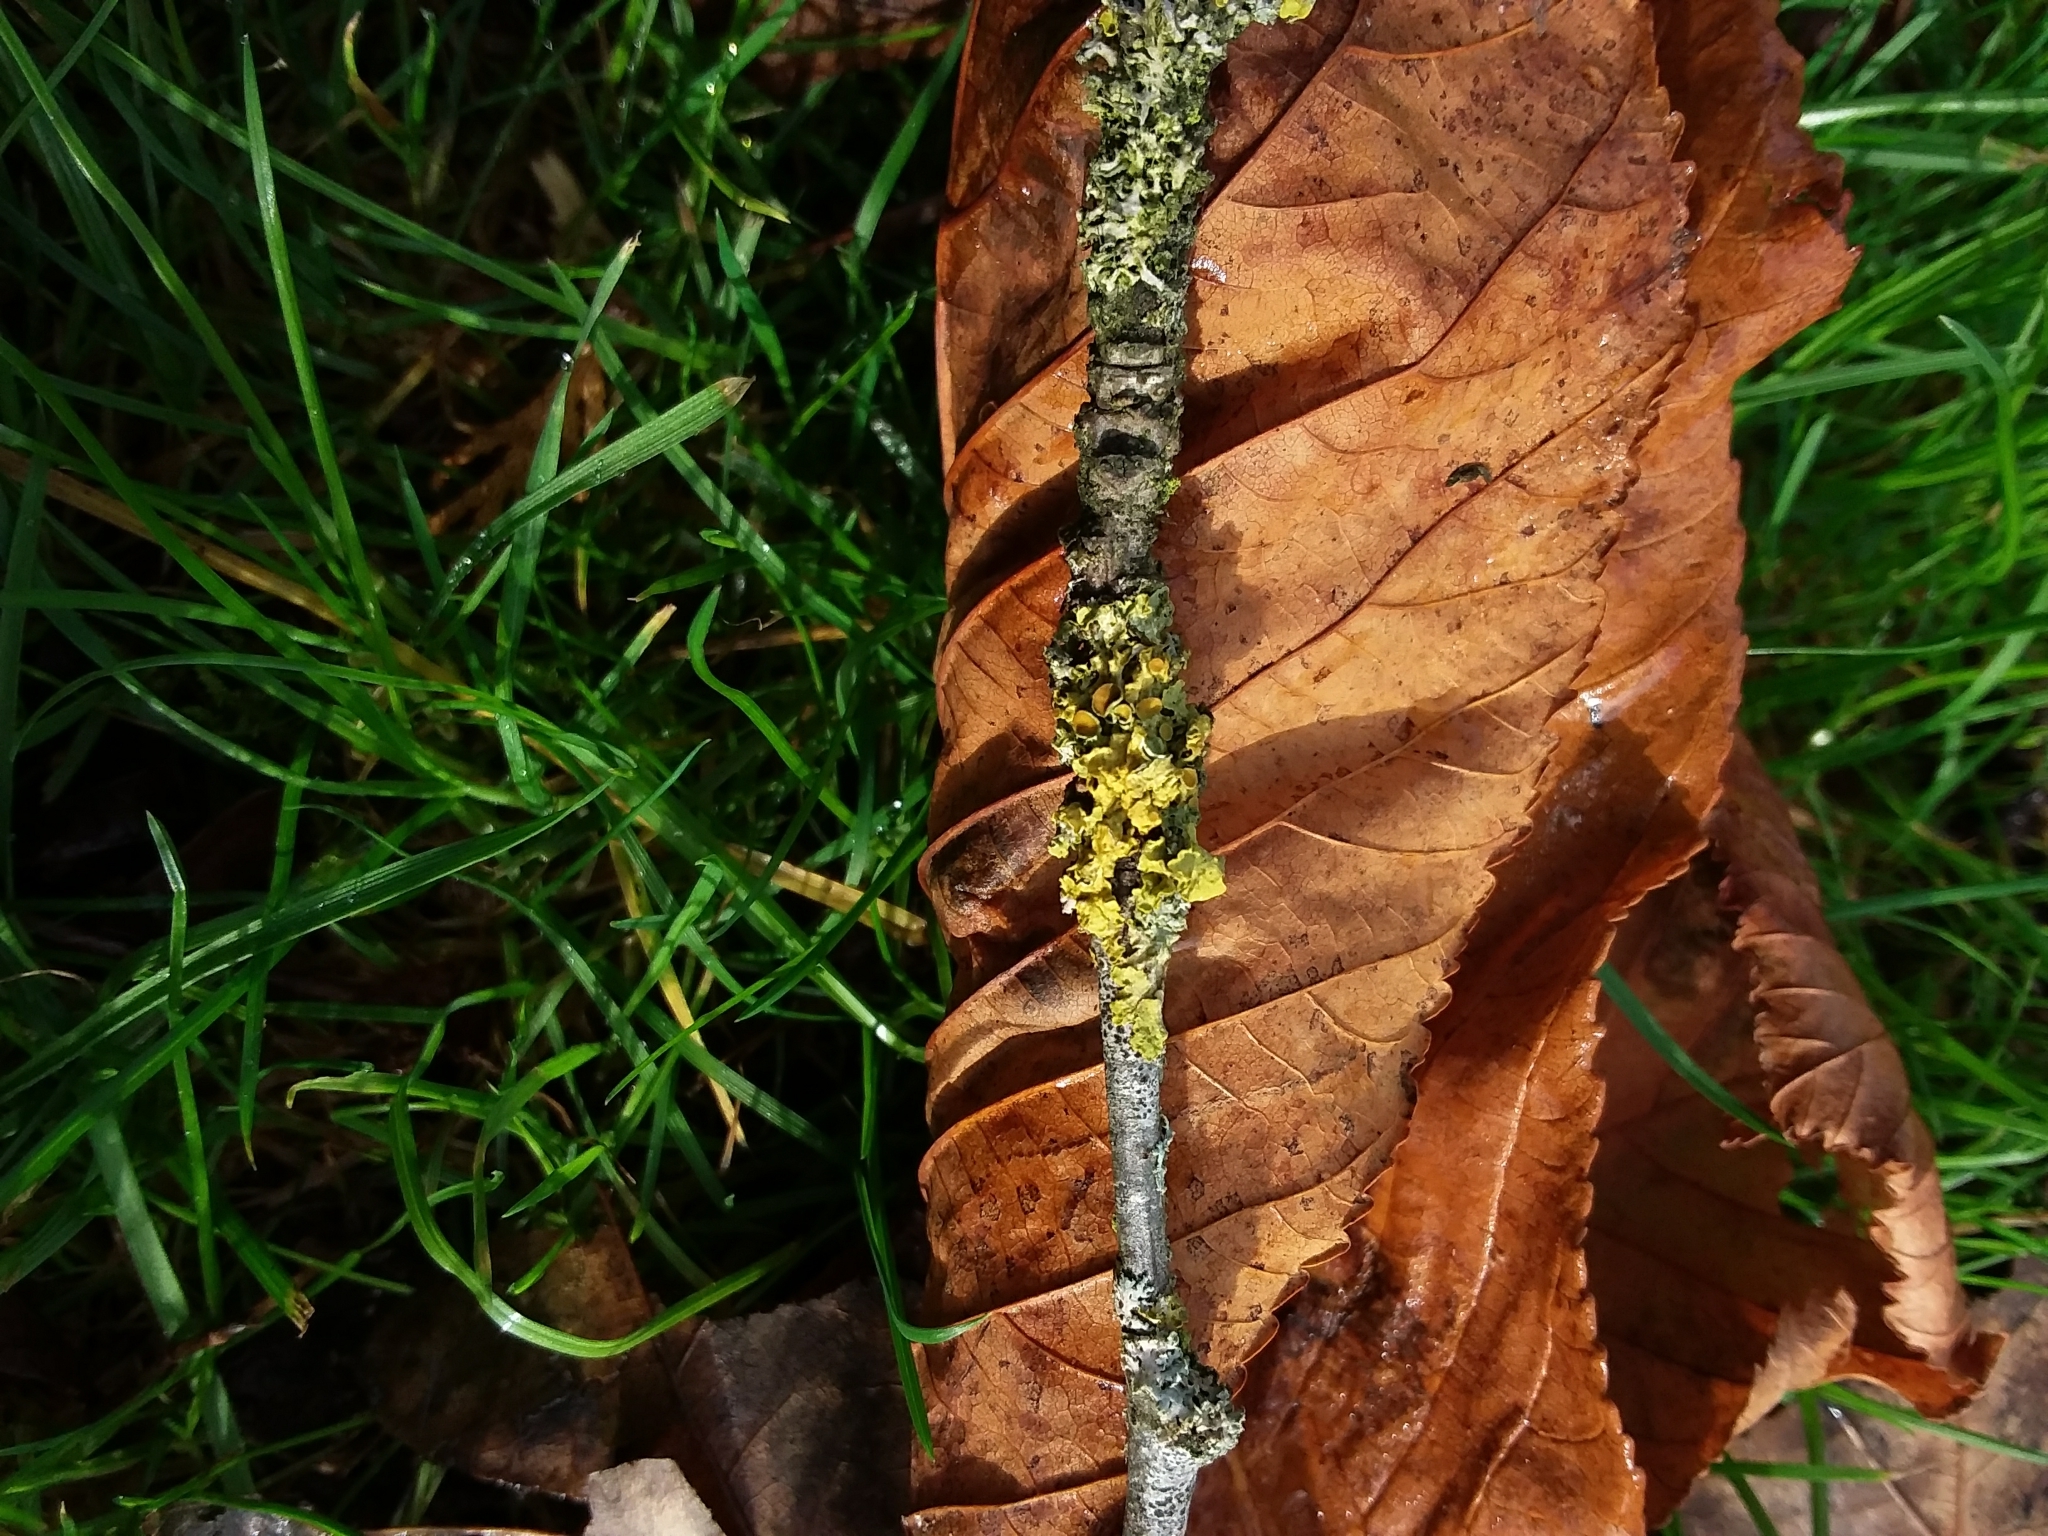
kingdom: Fungi
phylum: Ascomycota
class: Lecanoromycetes
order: Teloschistales
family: Teloschistaceae
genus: Xanthoria
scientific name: Xanthoria parietina
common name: Common orange lichen
